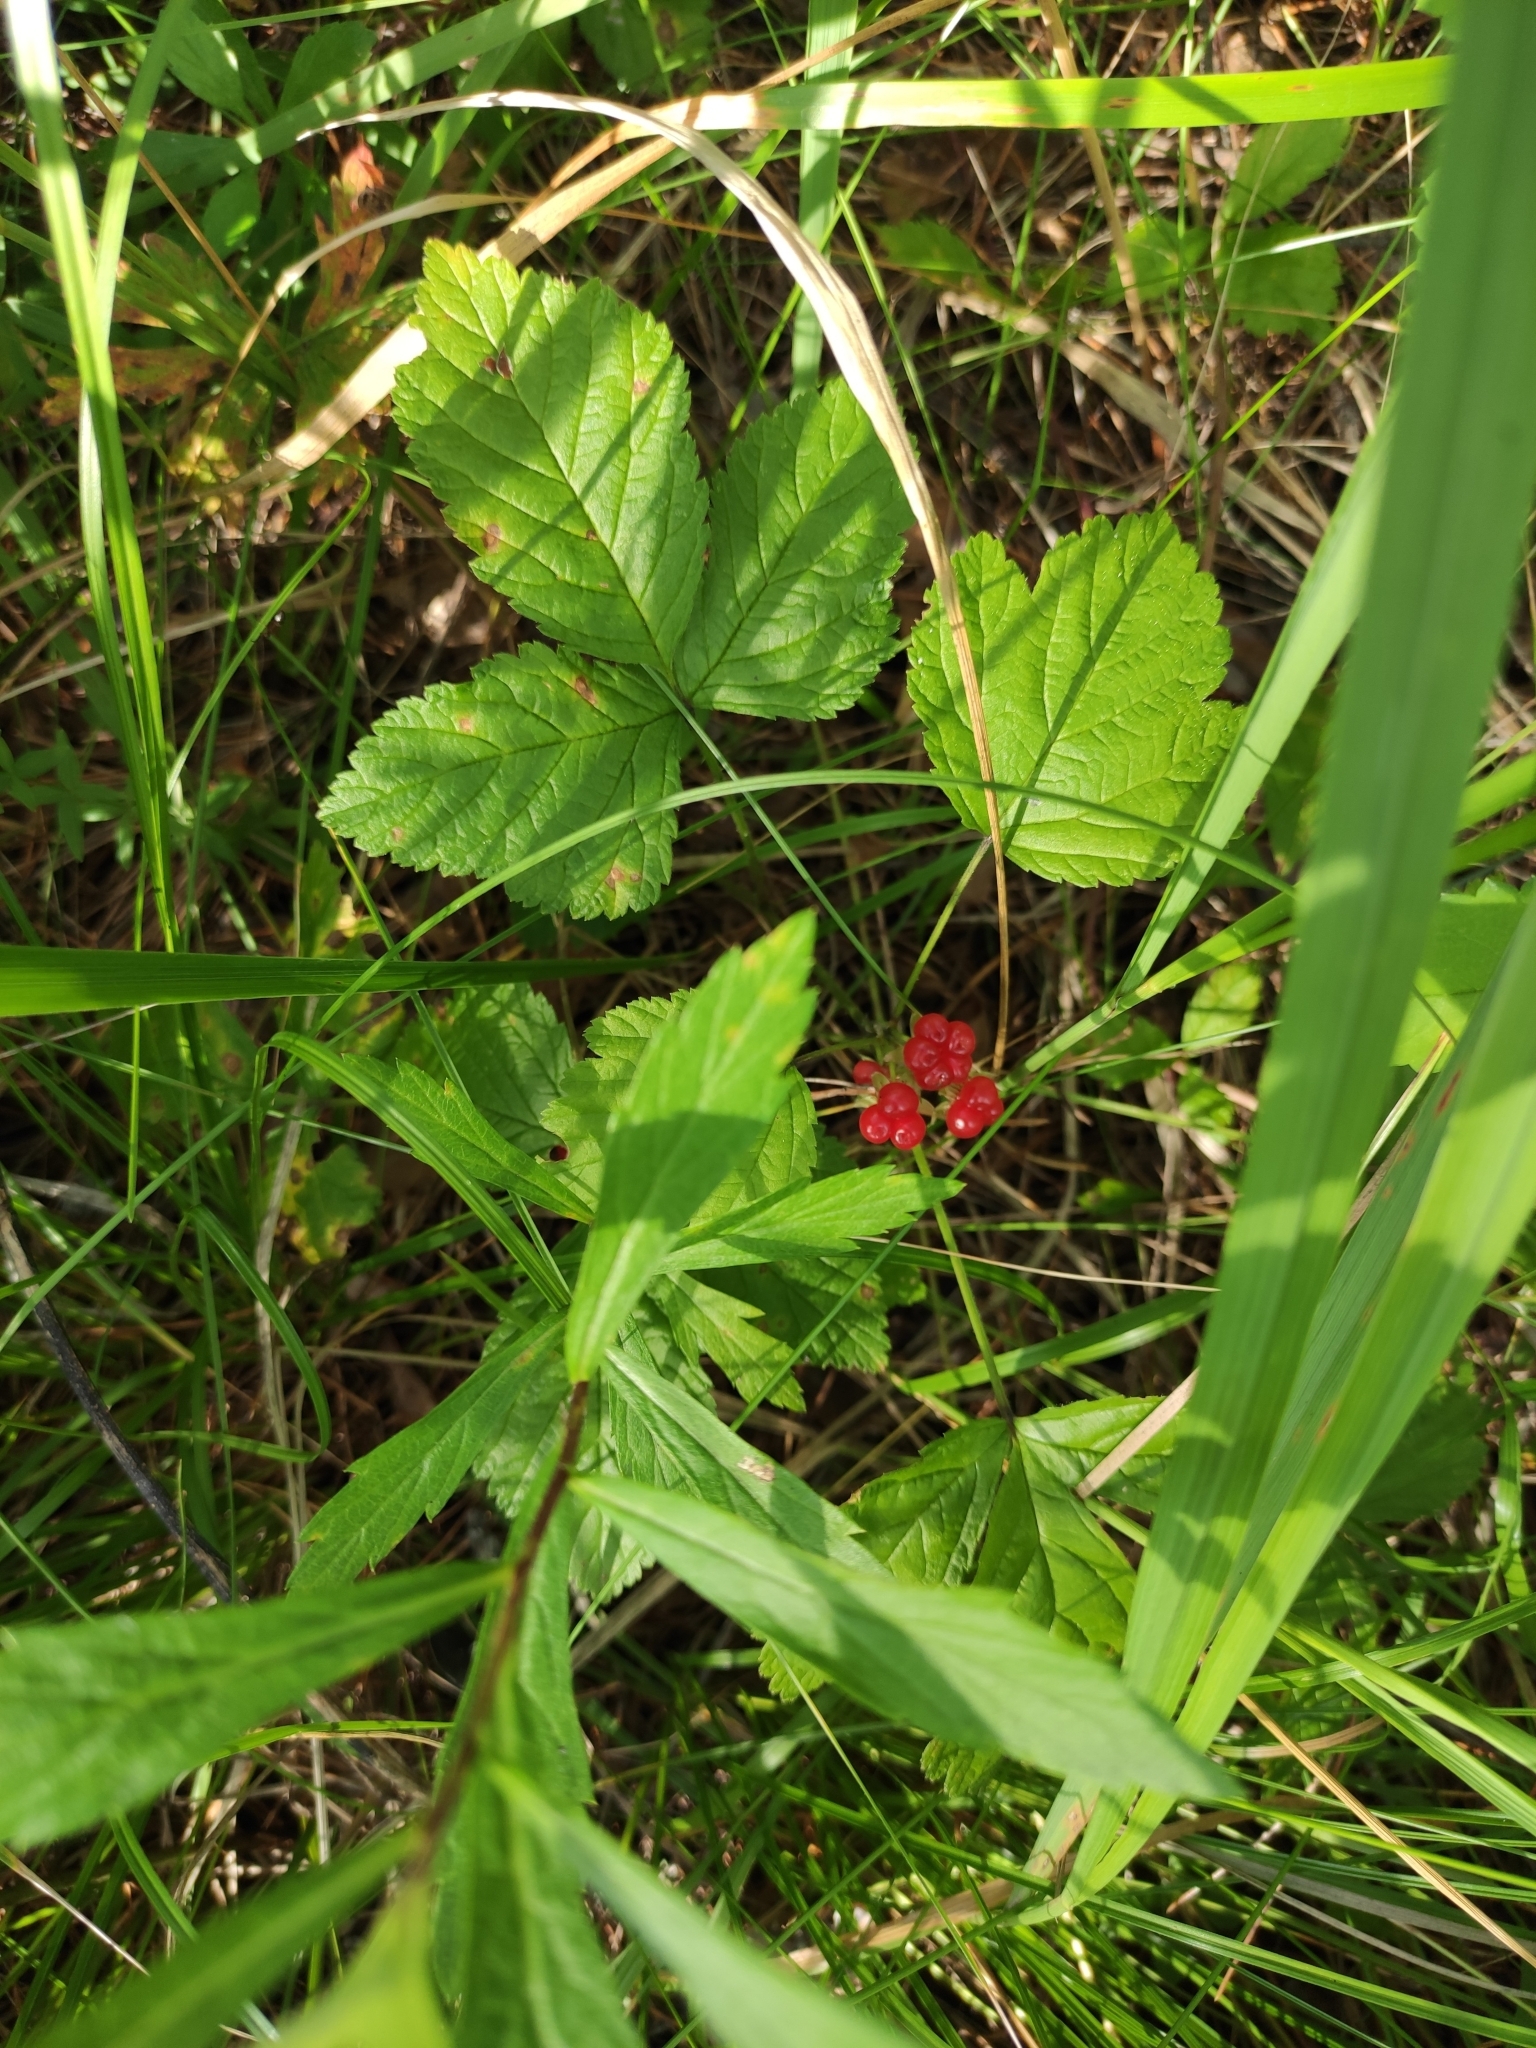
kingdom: Plantae
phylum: Tracheophyta
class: Magnoliopsida
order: Rosales
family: Rosaceae
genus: Rubus
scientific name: Rubus saxatilis
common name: Stone bramble
